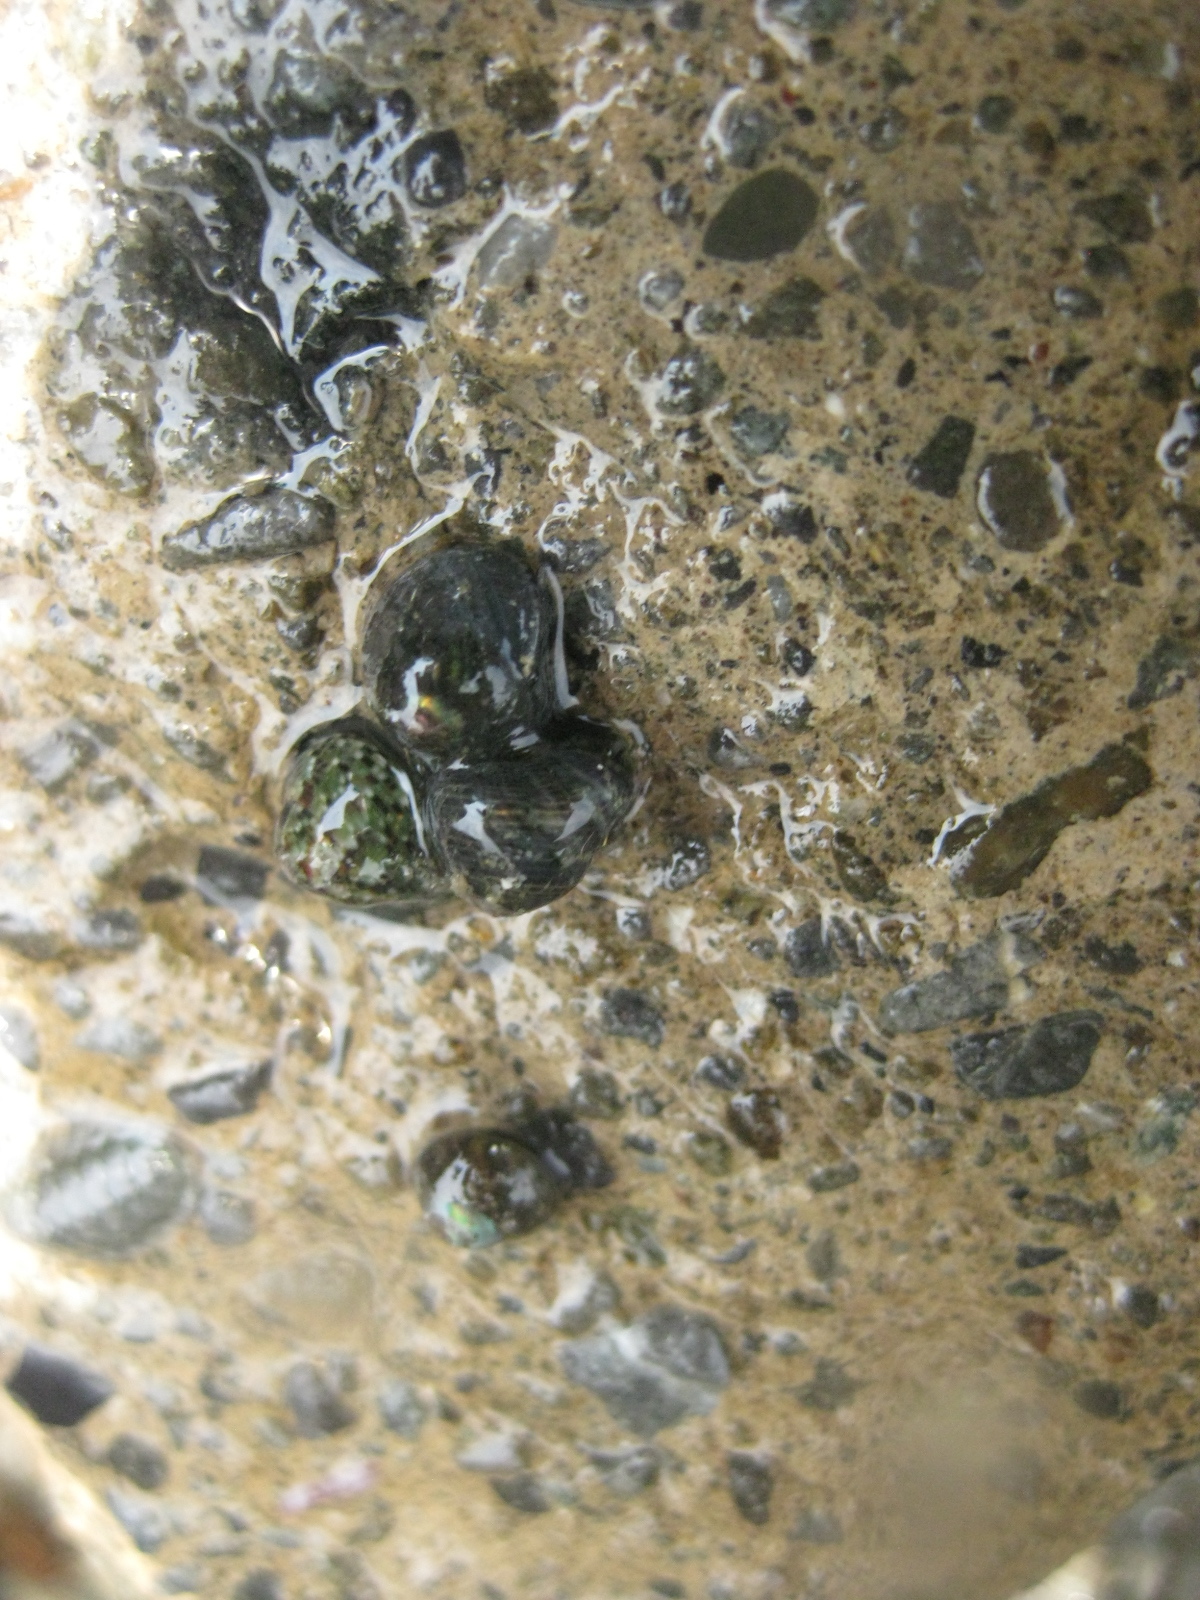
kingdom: Animalia
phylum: Mollusca
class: Gastropoda
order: Trochida
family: Trochidae
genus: Micrelenchus
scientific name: Micrelenchus tessellatus
